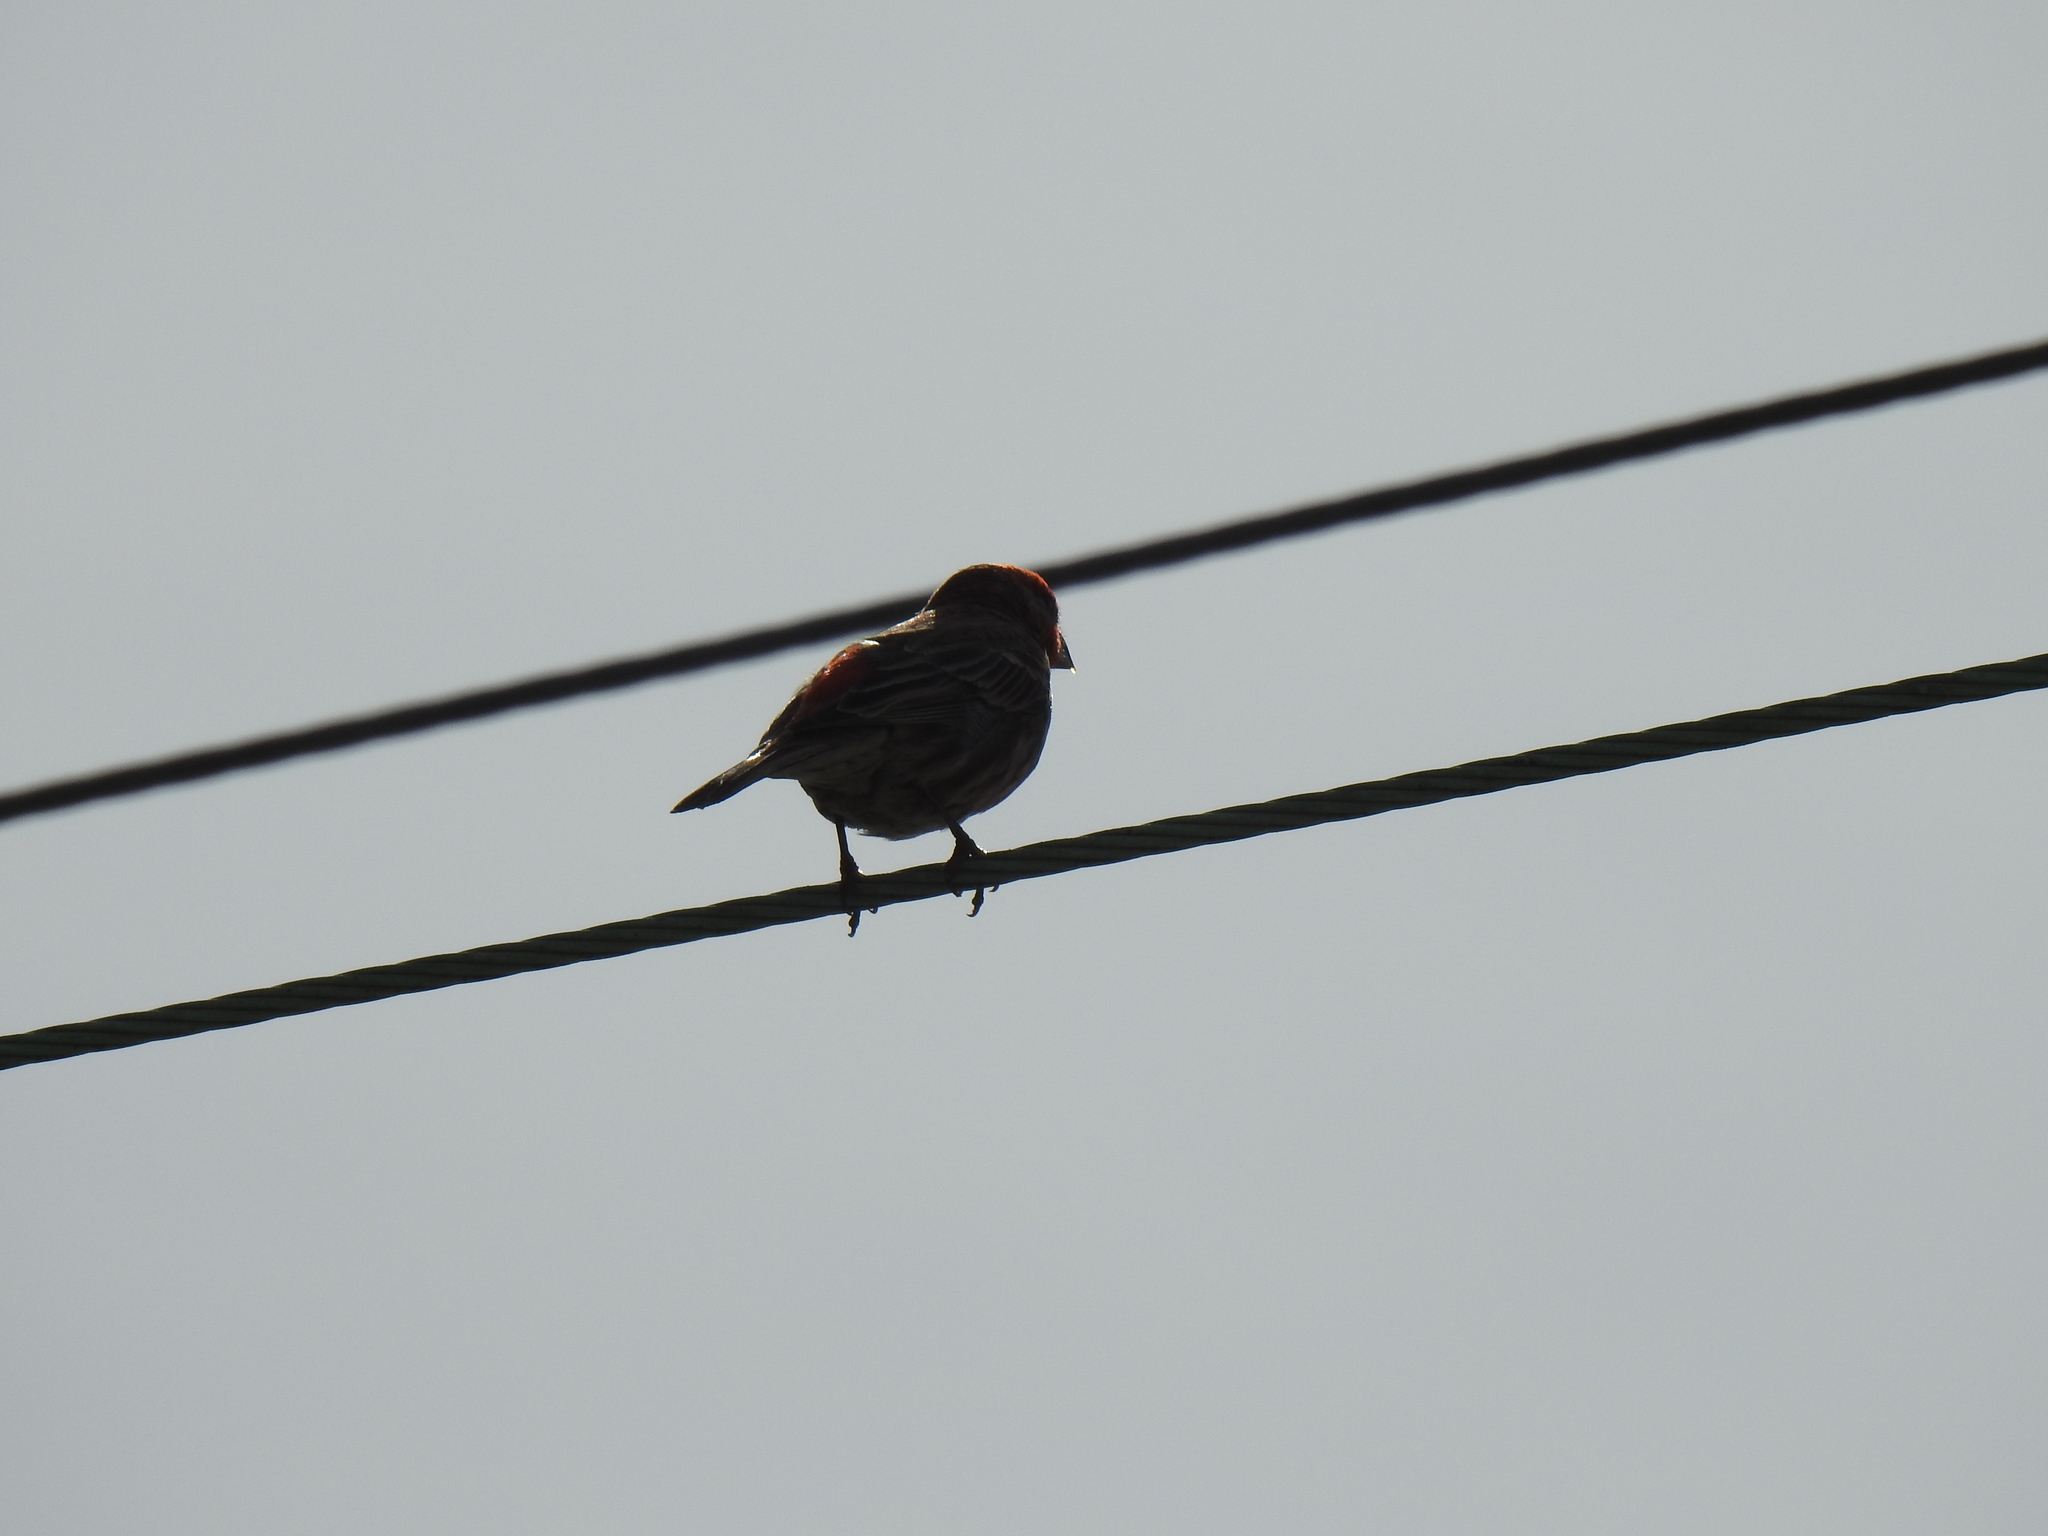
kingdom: Animalia
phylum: Chordata
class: Aves
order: Passeriformes
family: Fringillidae
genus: Haemorhous
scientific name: Haemorhous mexicanus
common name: House finch
